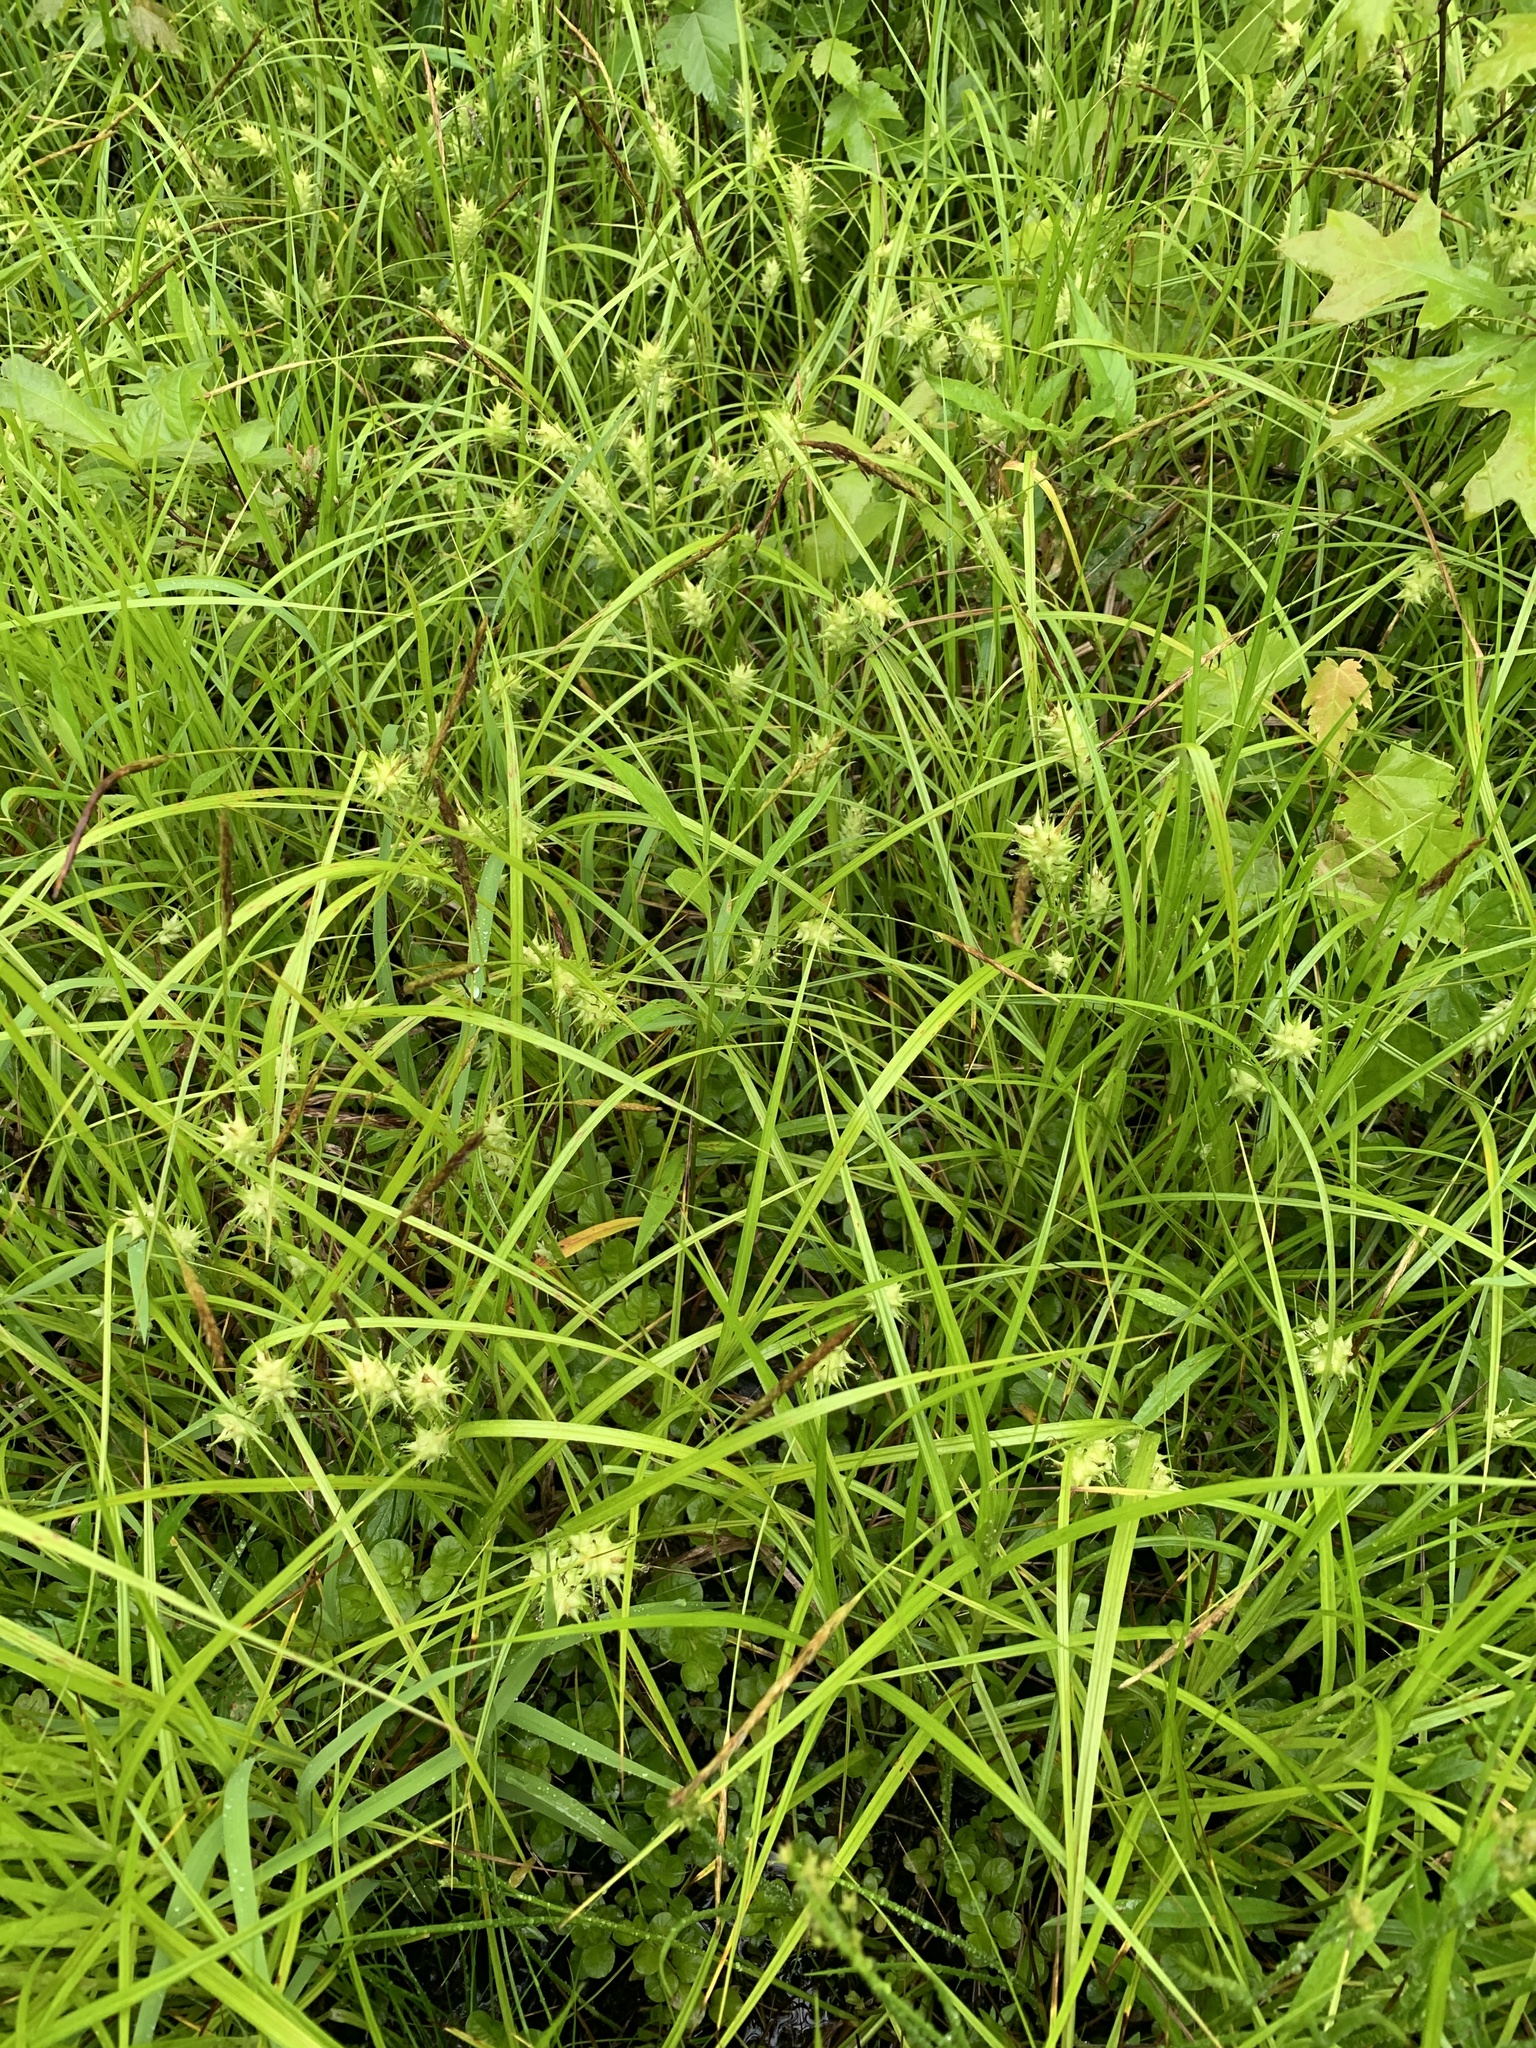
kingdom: Plantae
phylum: Tracheophyta
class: Liliopsida
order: Poales
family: Cyperaceae
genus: Carex
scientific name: Carex louisianica
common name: Louisiana sedge
